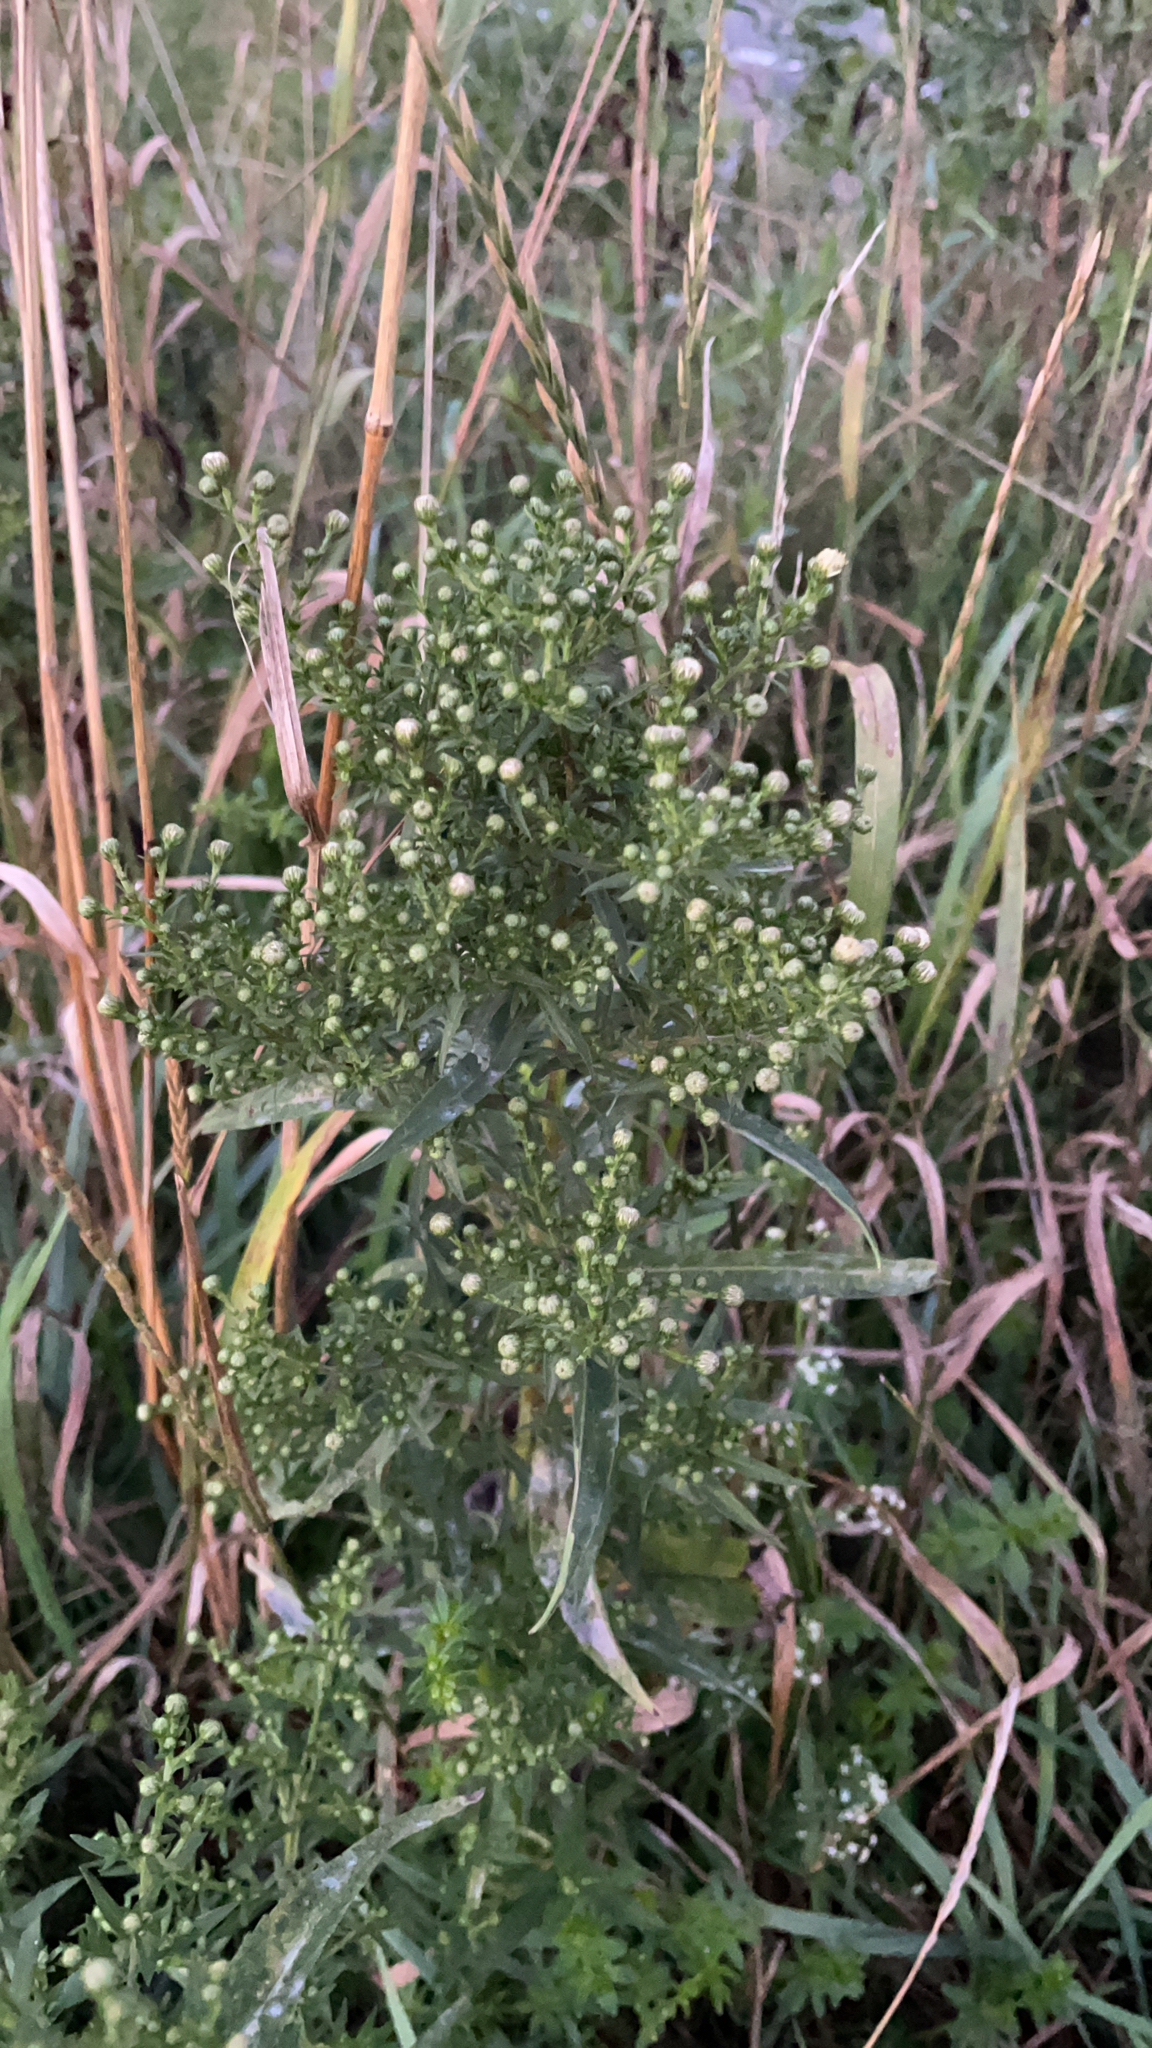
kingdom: Plantae
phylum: Tracheophyta
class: Magnoliopsida
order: Asterales
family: Asteraceae
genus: Erigeron
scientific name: Erigeron canadensis
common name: Canadian fleabane
